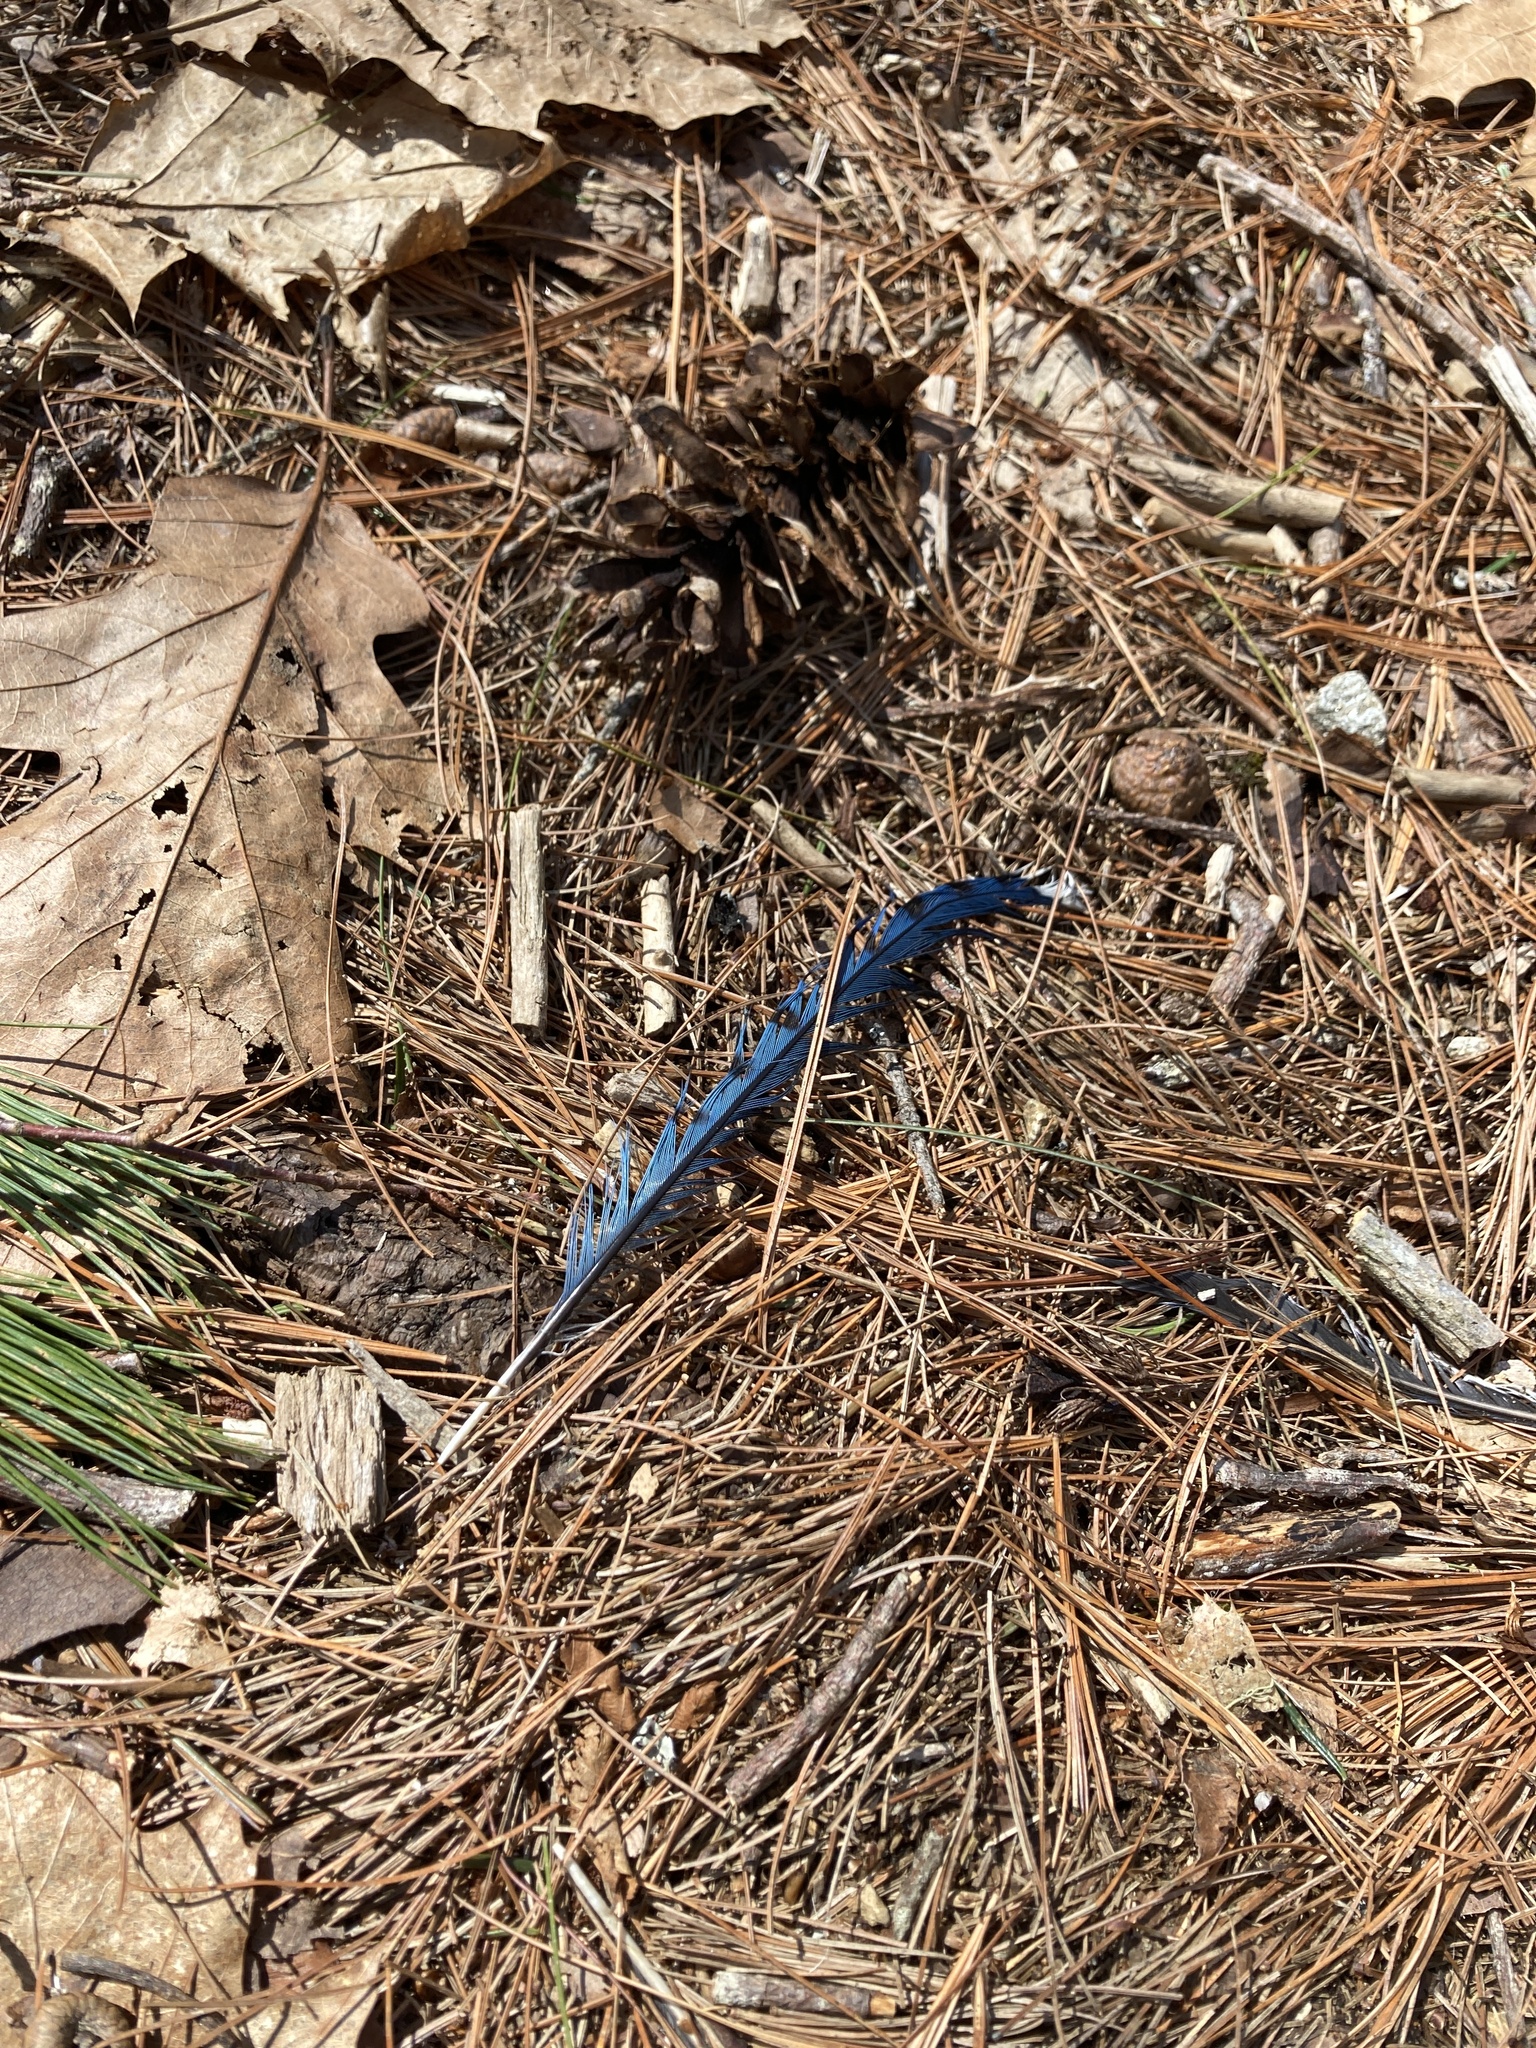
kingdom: Animalia
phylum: Chordata
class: Aves
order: Passeriformes
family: Corvidae
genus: Cyanocitta
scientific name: Cyanocitta cristata
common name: Blue jay
